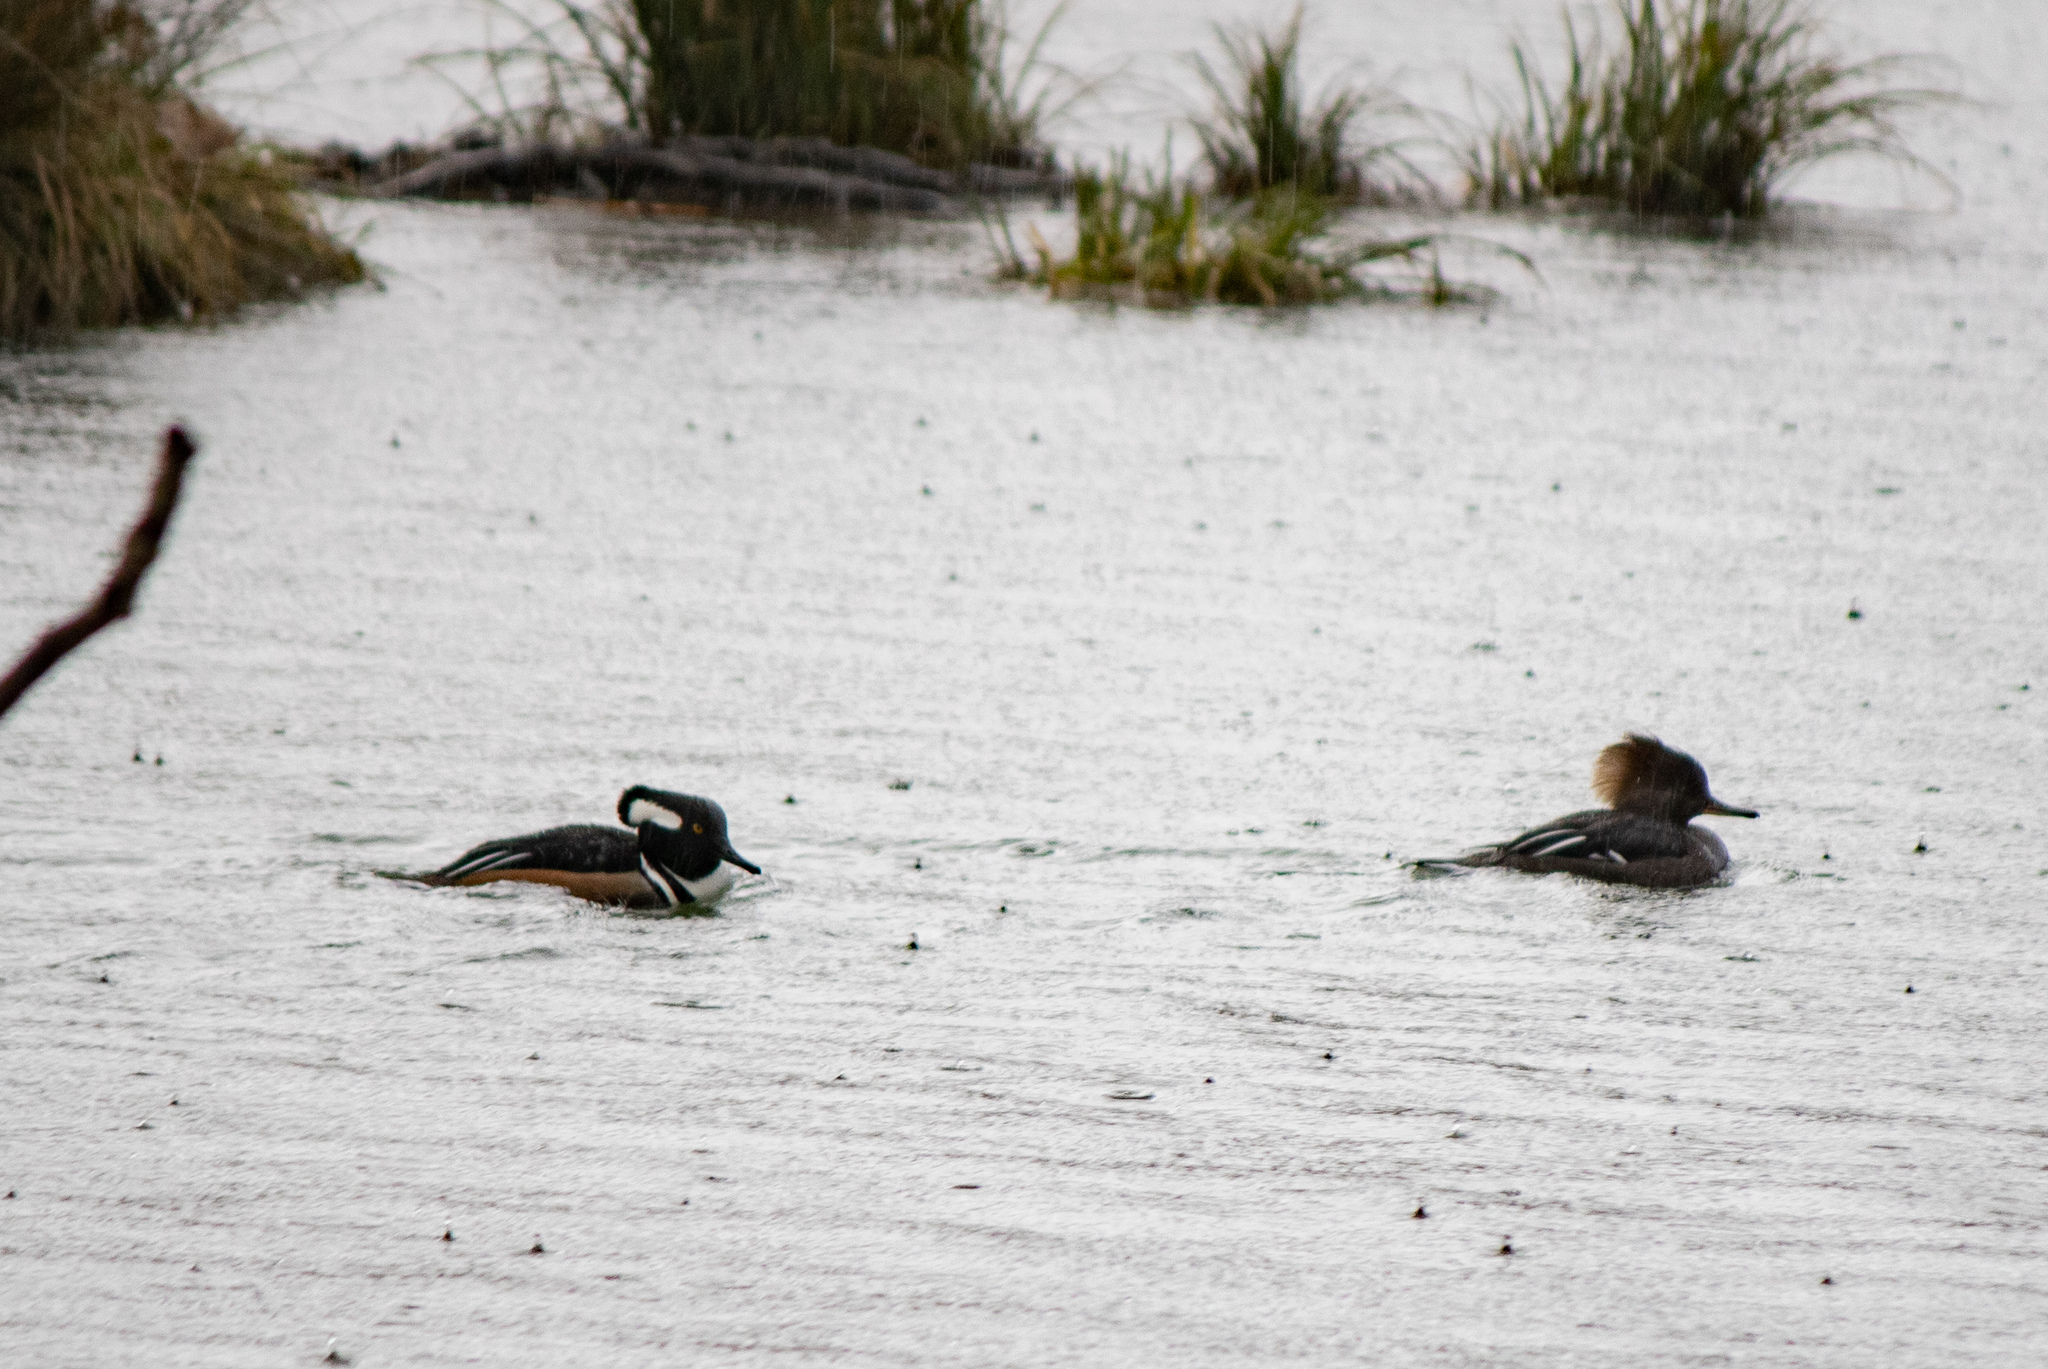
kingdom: Animalia
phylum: Chordata
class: Aves
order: Anseriformes
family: Anatidae
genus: Lophodytes
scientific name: Lophodytes cucullatus
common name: Hooded merganser
